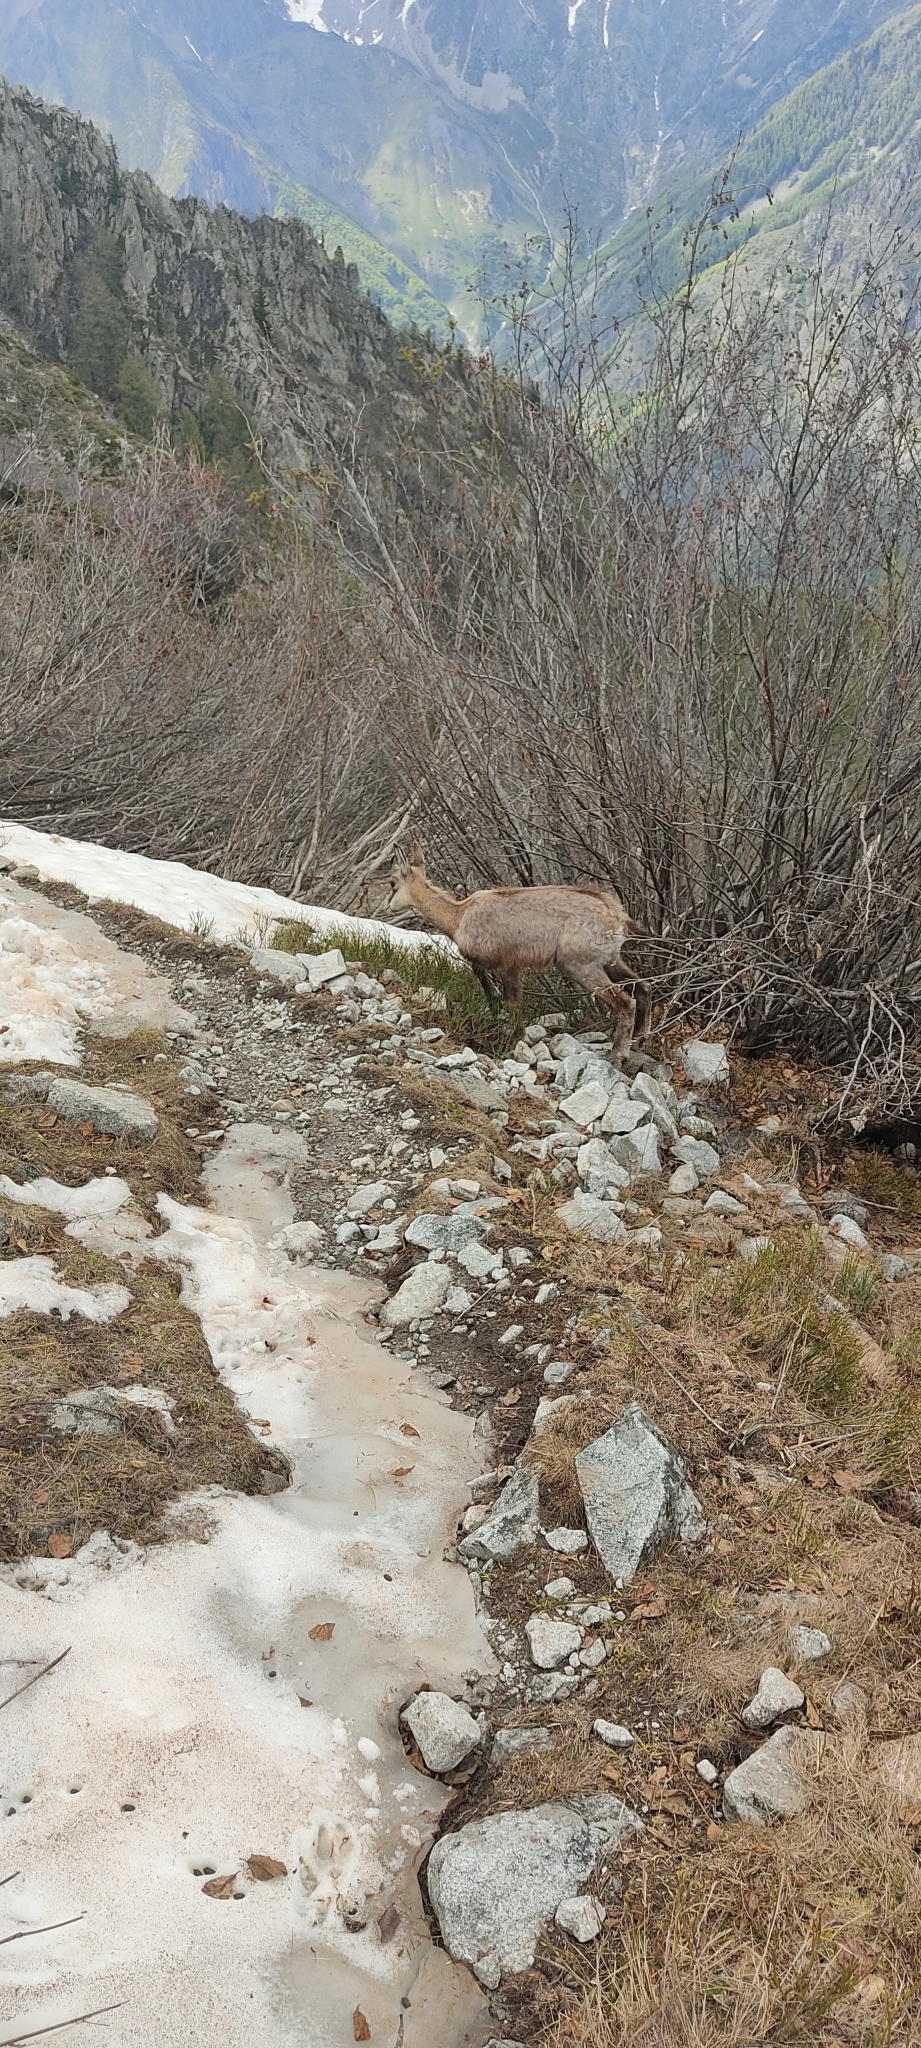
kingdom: Animalia
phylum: Chordata
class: Mammalia
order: Artiodactyla
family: Bovidae
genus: Rupicapra
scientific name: Rupicapra rupicapra
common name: Chamois
